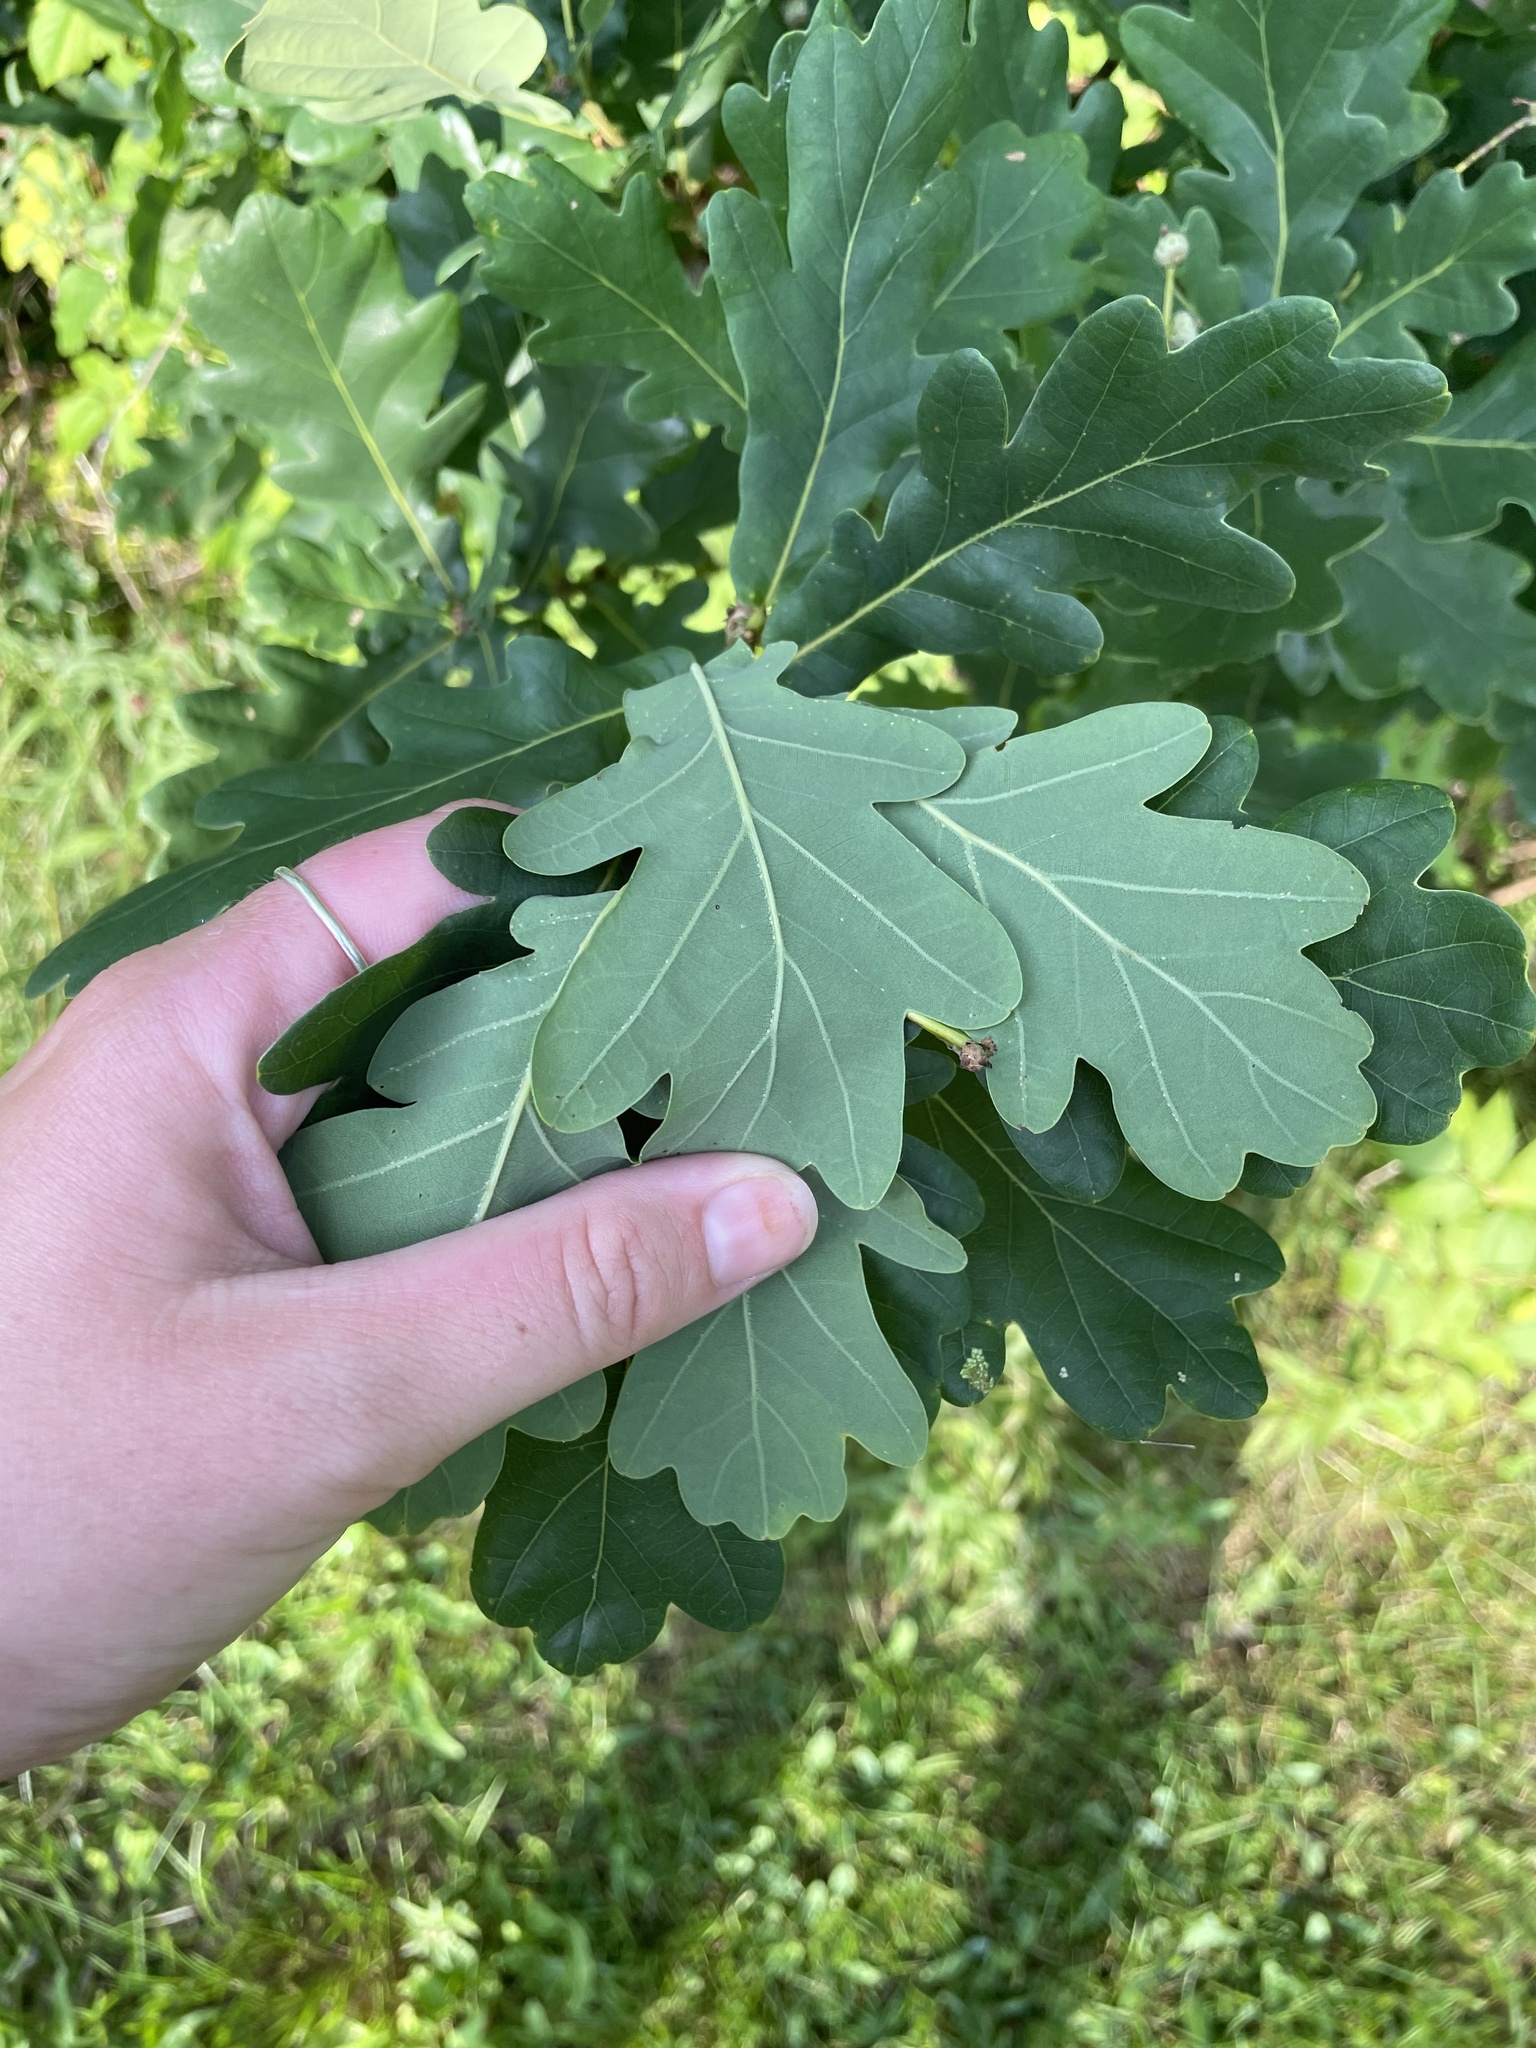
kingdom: Plantae
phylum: Tracheophyta
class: Magnoliopsida
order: Fagales
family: Fagaceae
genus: Quercus
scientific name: Quercus robur
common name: Pedunculate oak
